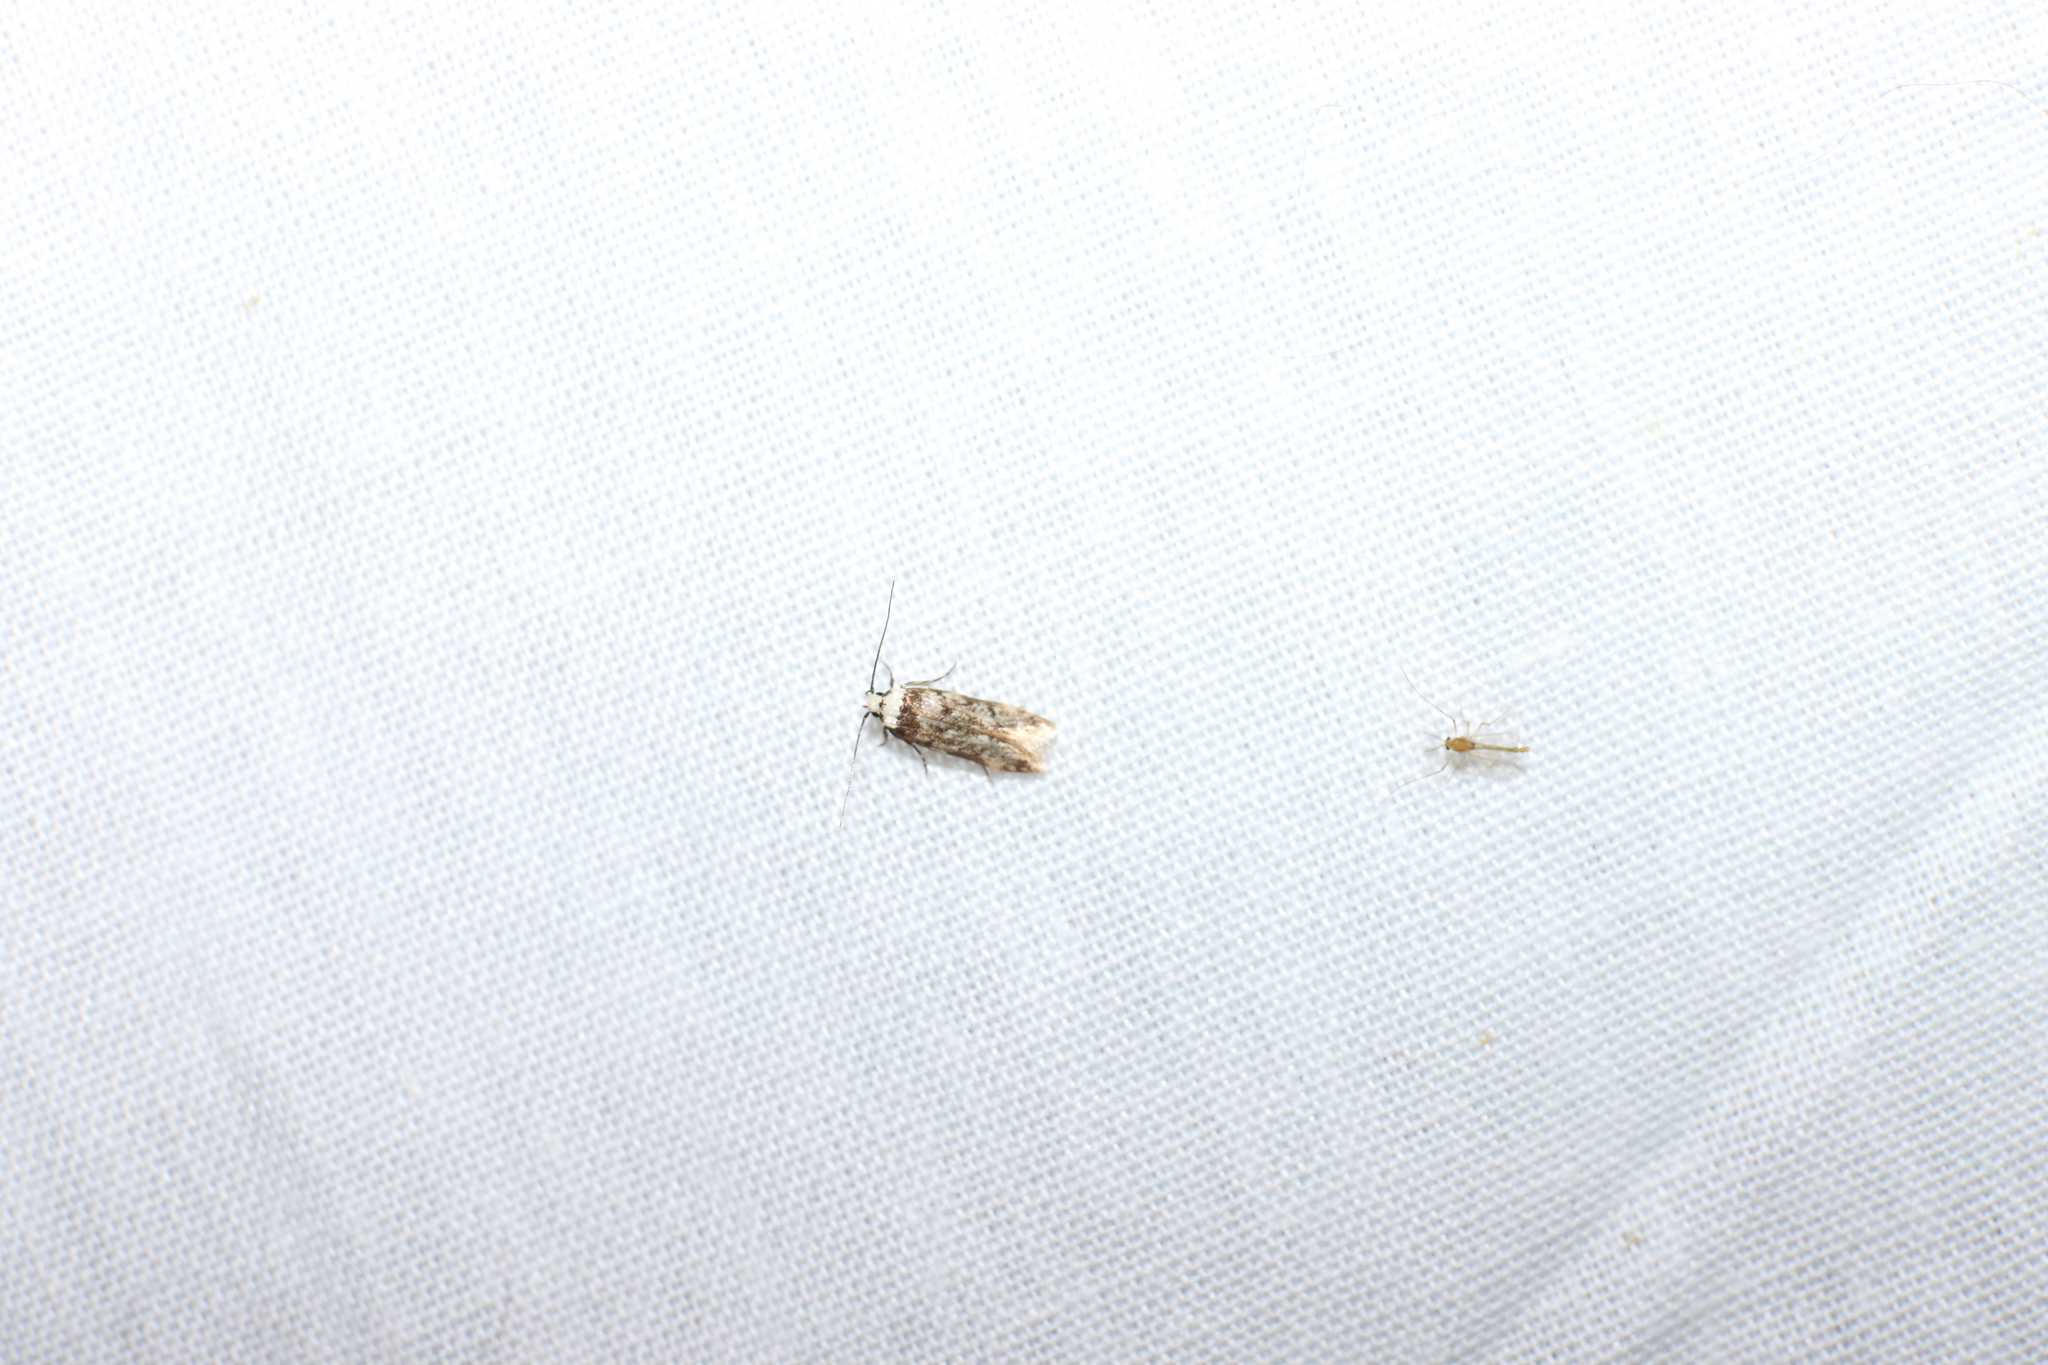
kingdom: Animalia
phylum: Arthropoda
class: Insecta
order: Lepidoptera
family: Oecophoridae
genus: Endrosis
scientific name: Endrosis sarcitrella
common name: White-shouldered house moth
